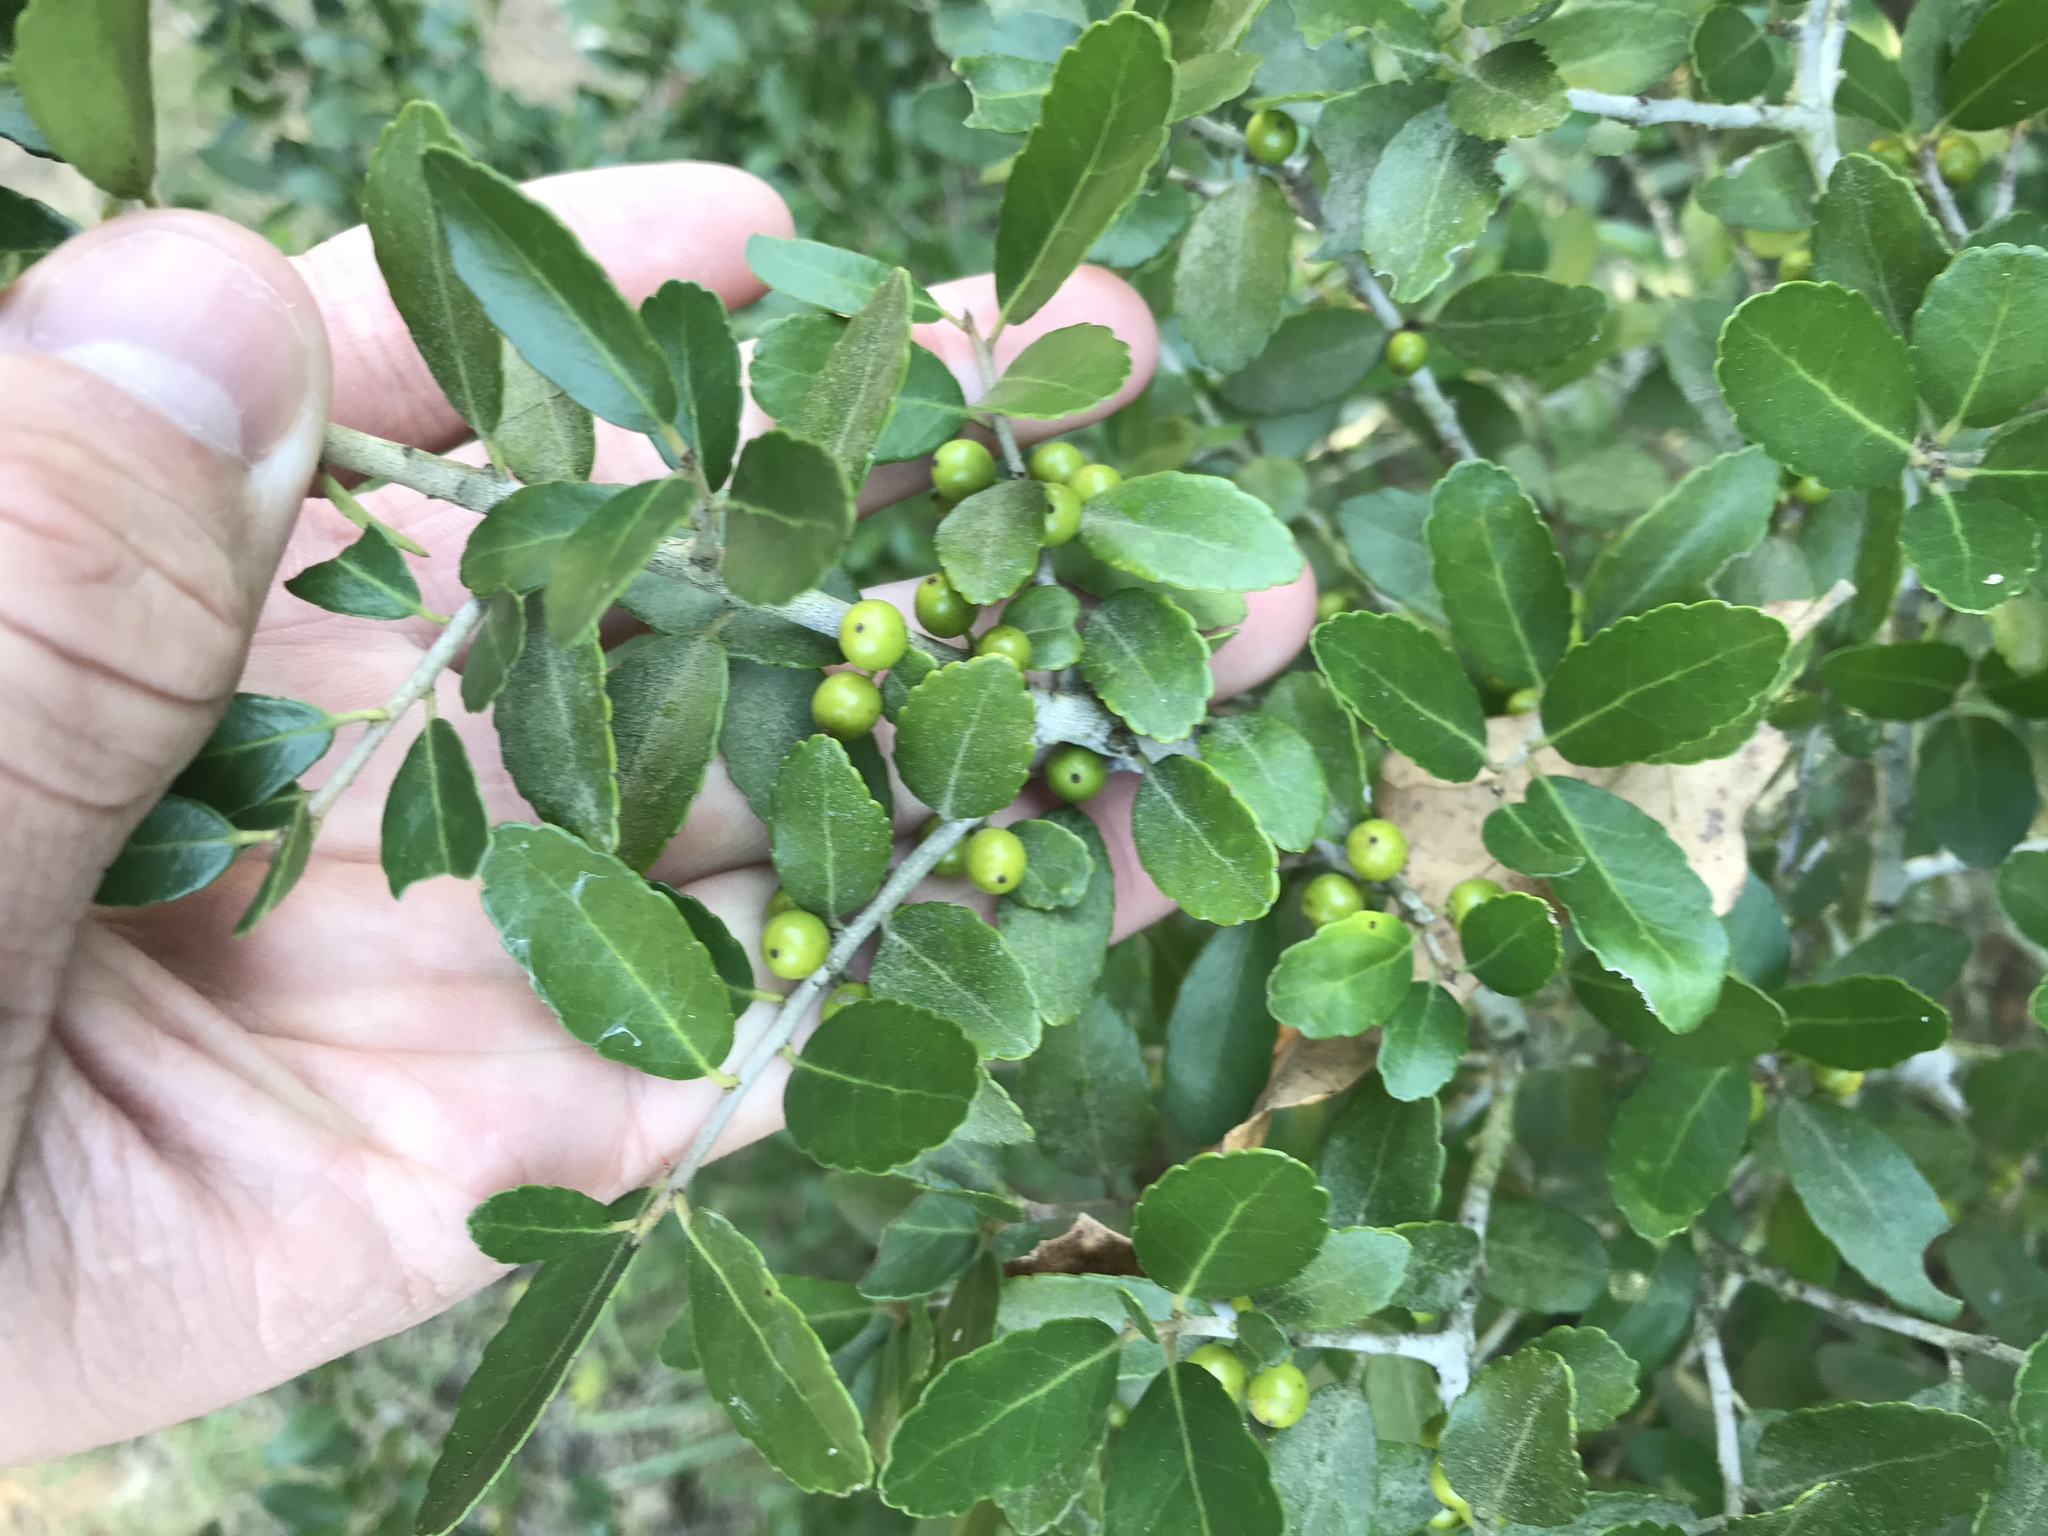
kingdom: Plantae
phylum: Tracheophyta
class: Magnoliopsida
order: Aquifoliales
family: Aquifoliaceae
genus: Ilex
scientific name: Ilex vomitoria
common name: Yaupon holly
